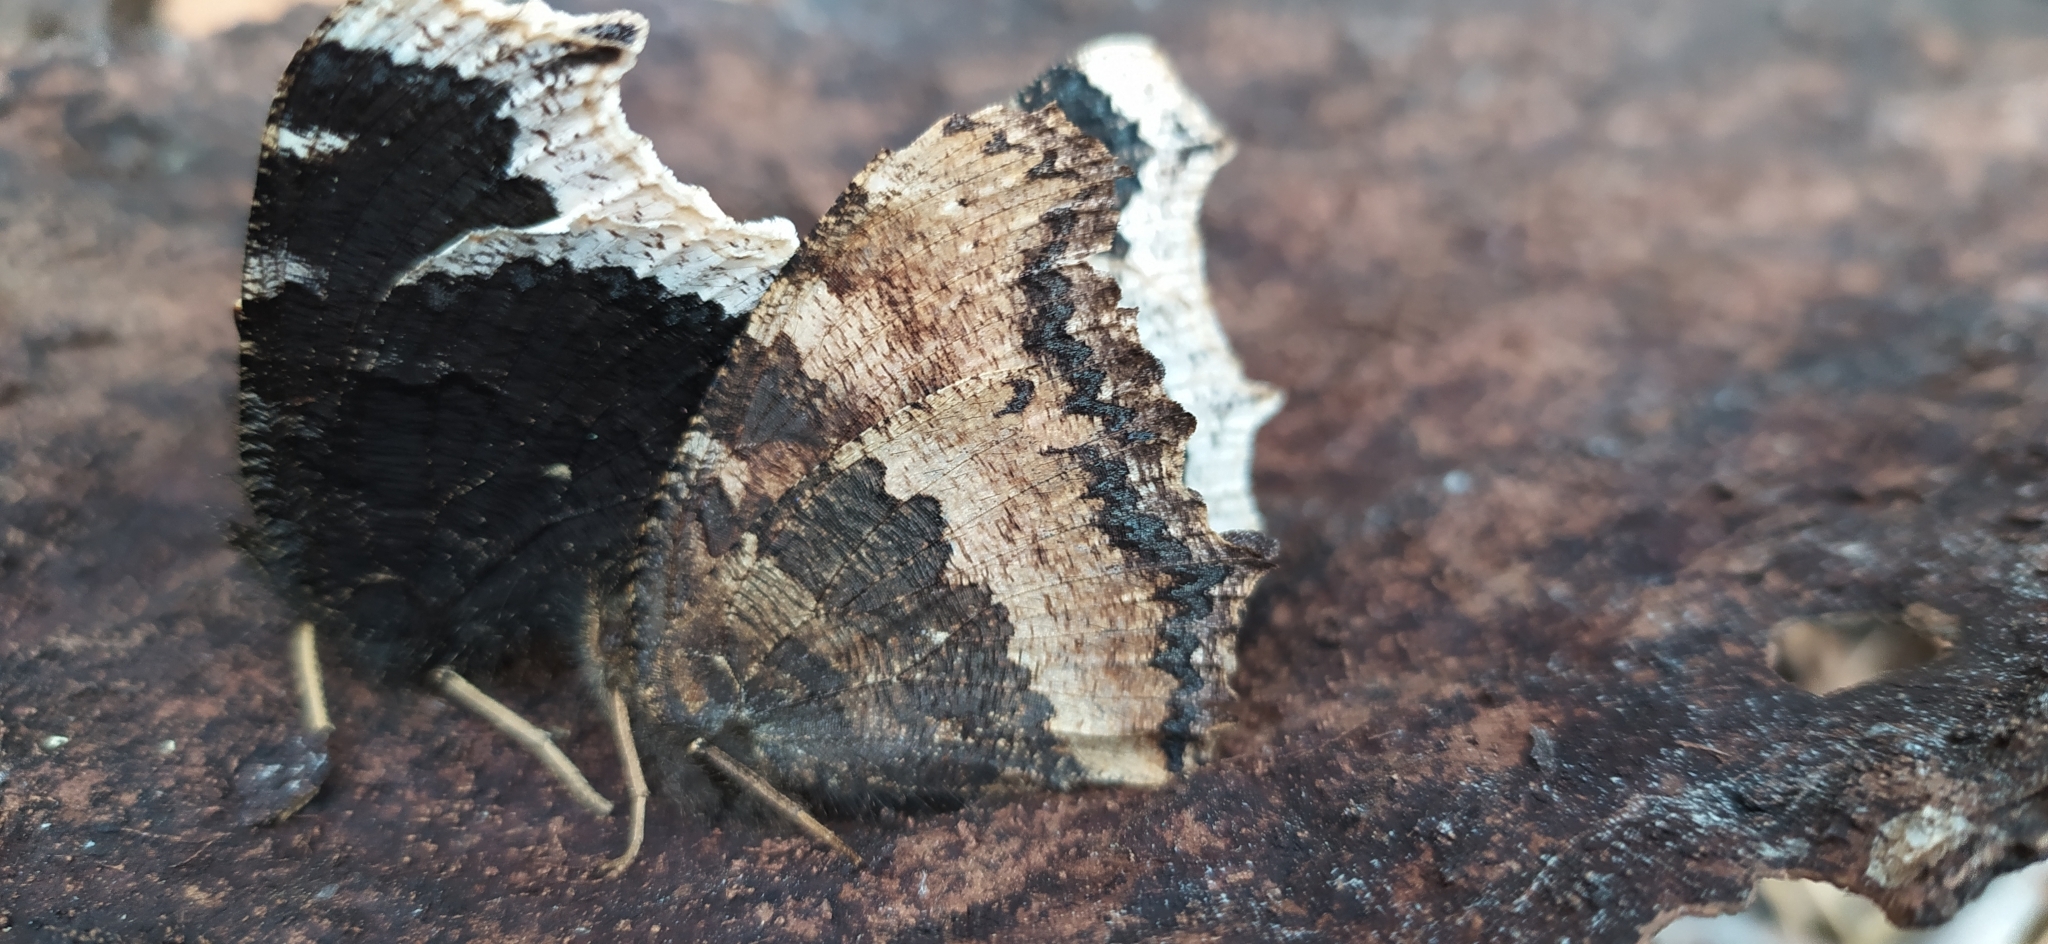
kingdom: Animalia
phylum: Arthropoda
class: Insecta
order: Lepidoptera
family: Nymphalidae
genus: Nymphalis
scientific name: Nymphalis xanthomelas
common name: Scarce tortoiseshell
